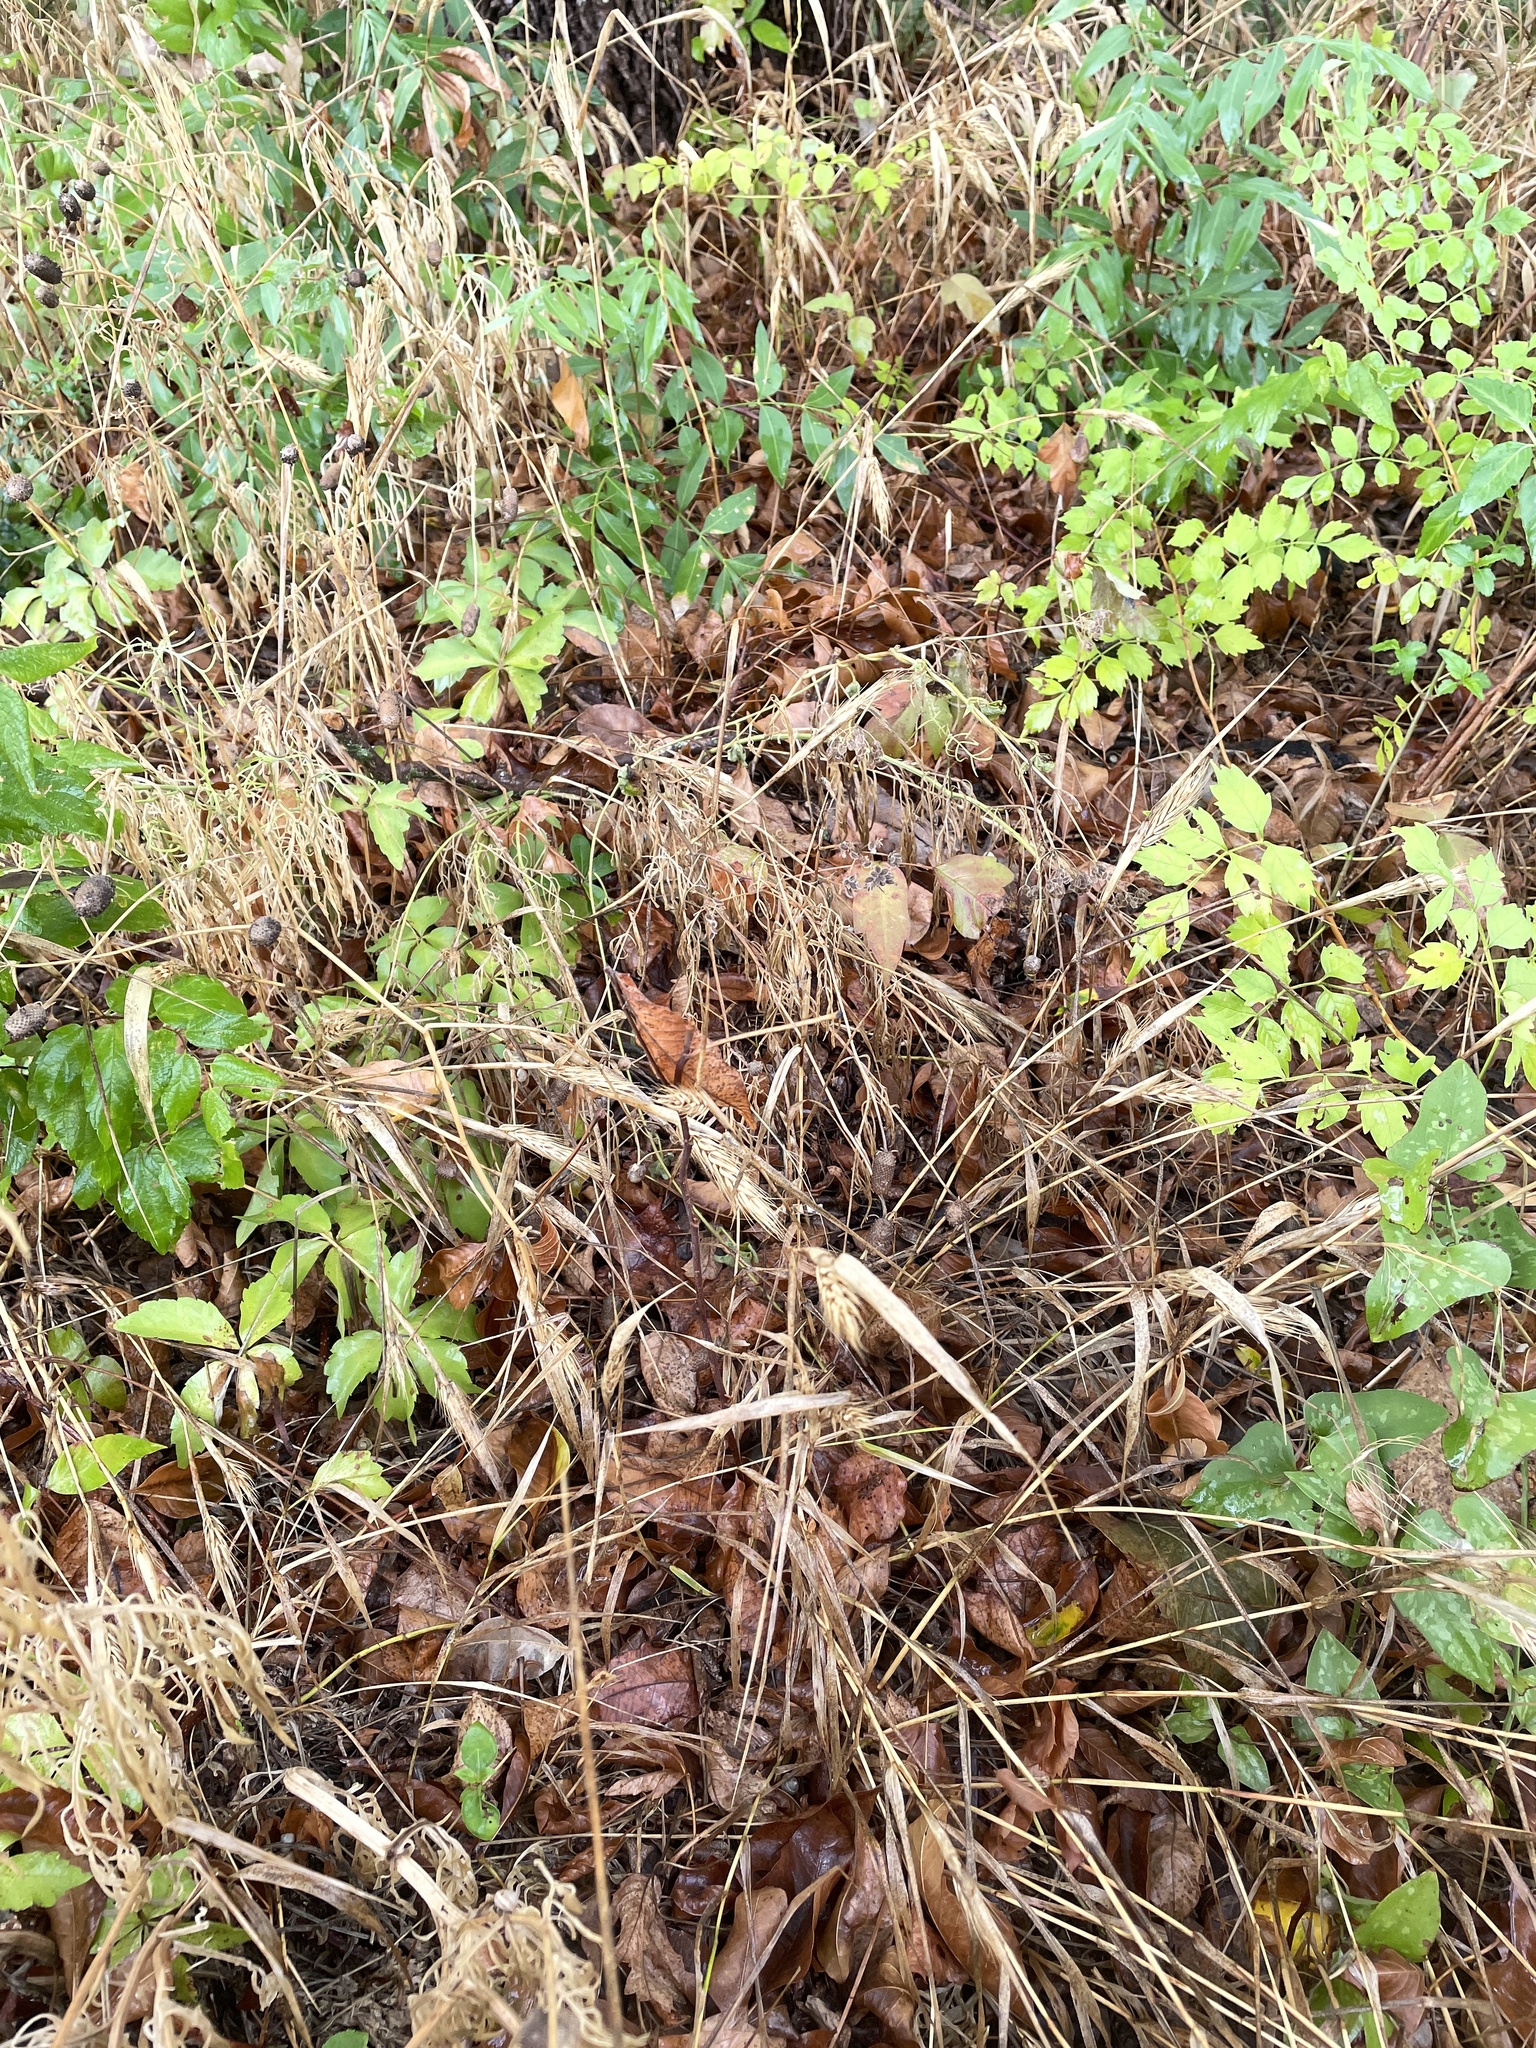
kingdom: Plantae
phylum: Tracheophyta
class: Liliopsida
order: Poales
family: Poaceae
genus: Elymus
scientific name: Elymus virginicus
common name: Common eastern wildrye
